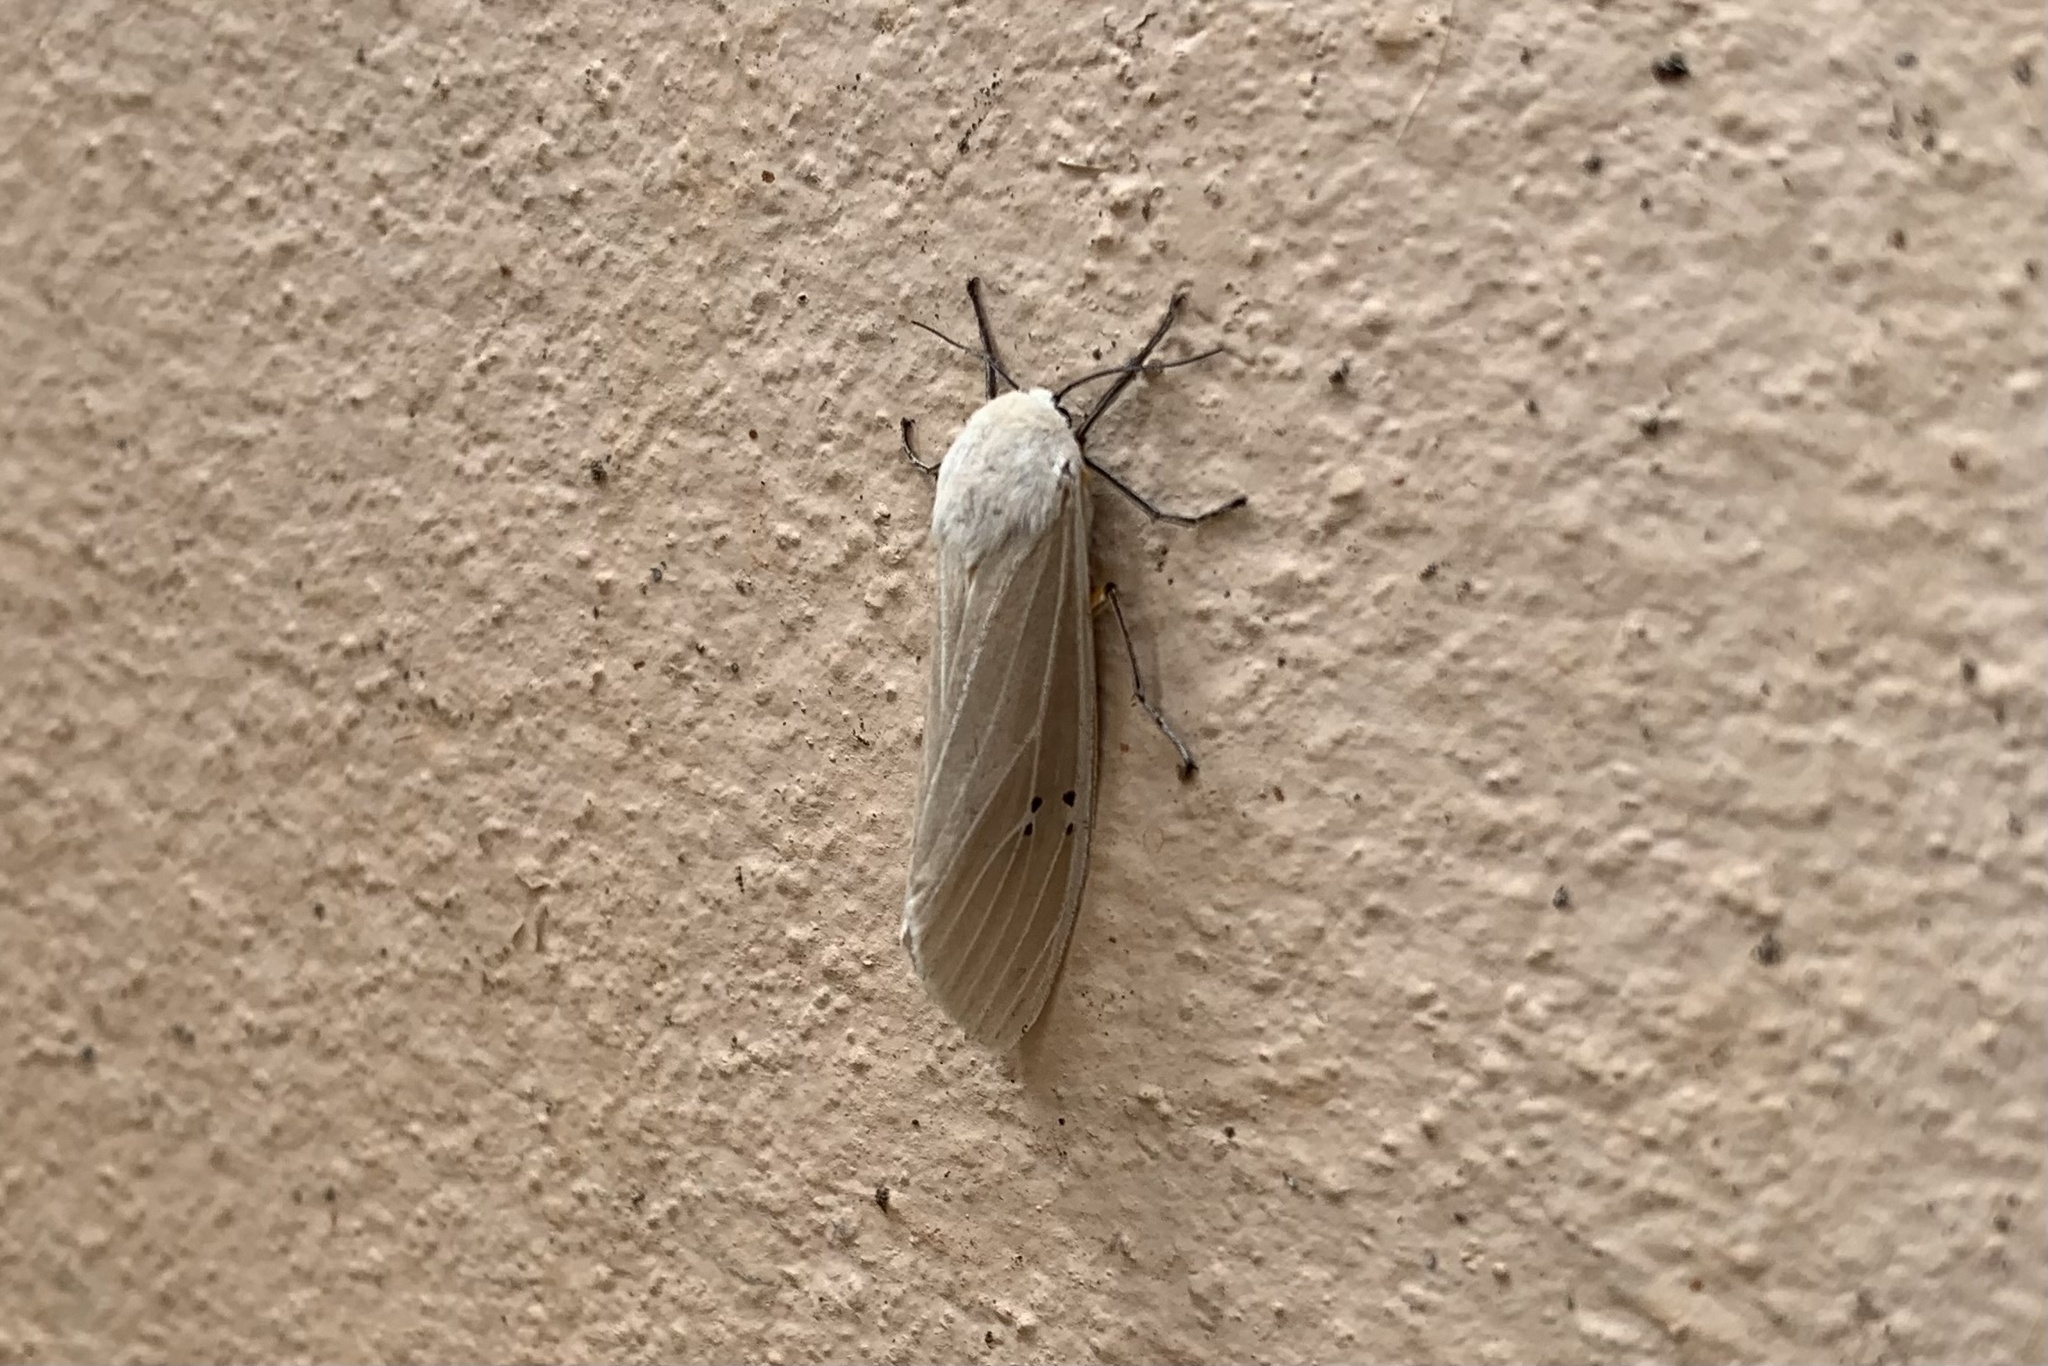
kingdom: Animalia
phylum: Arthropoda
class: Insecta
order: Lepidoptera
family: Erebidae
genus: Creatonotos
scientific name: Creatonotos transiens
